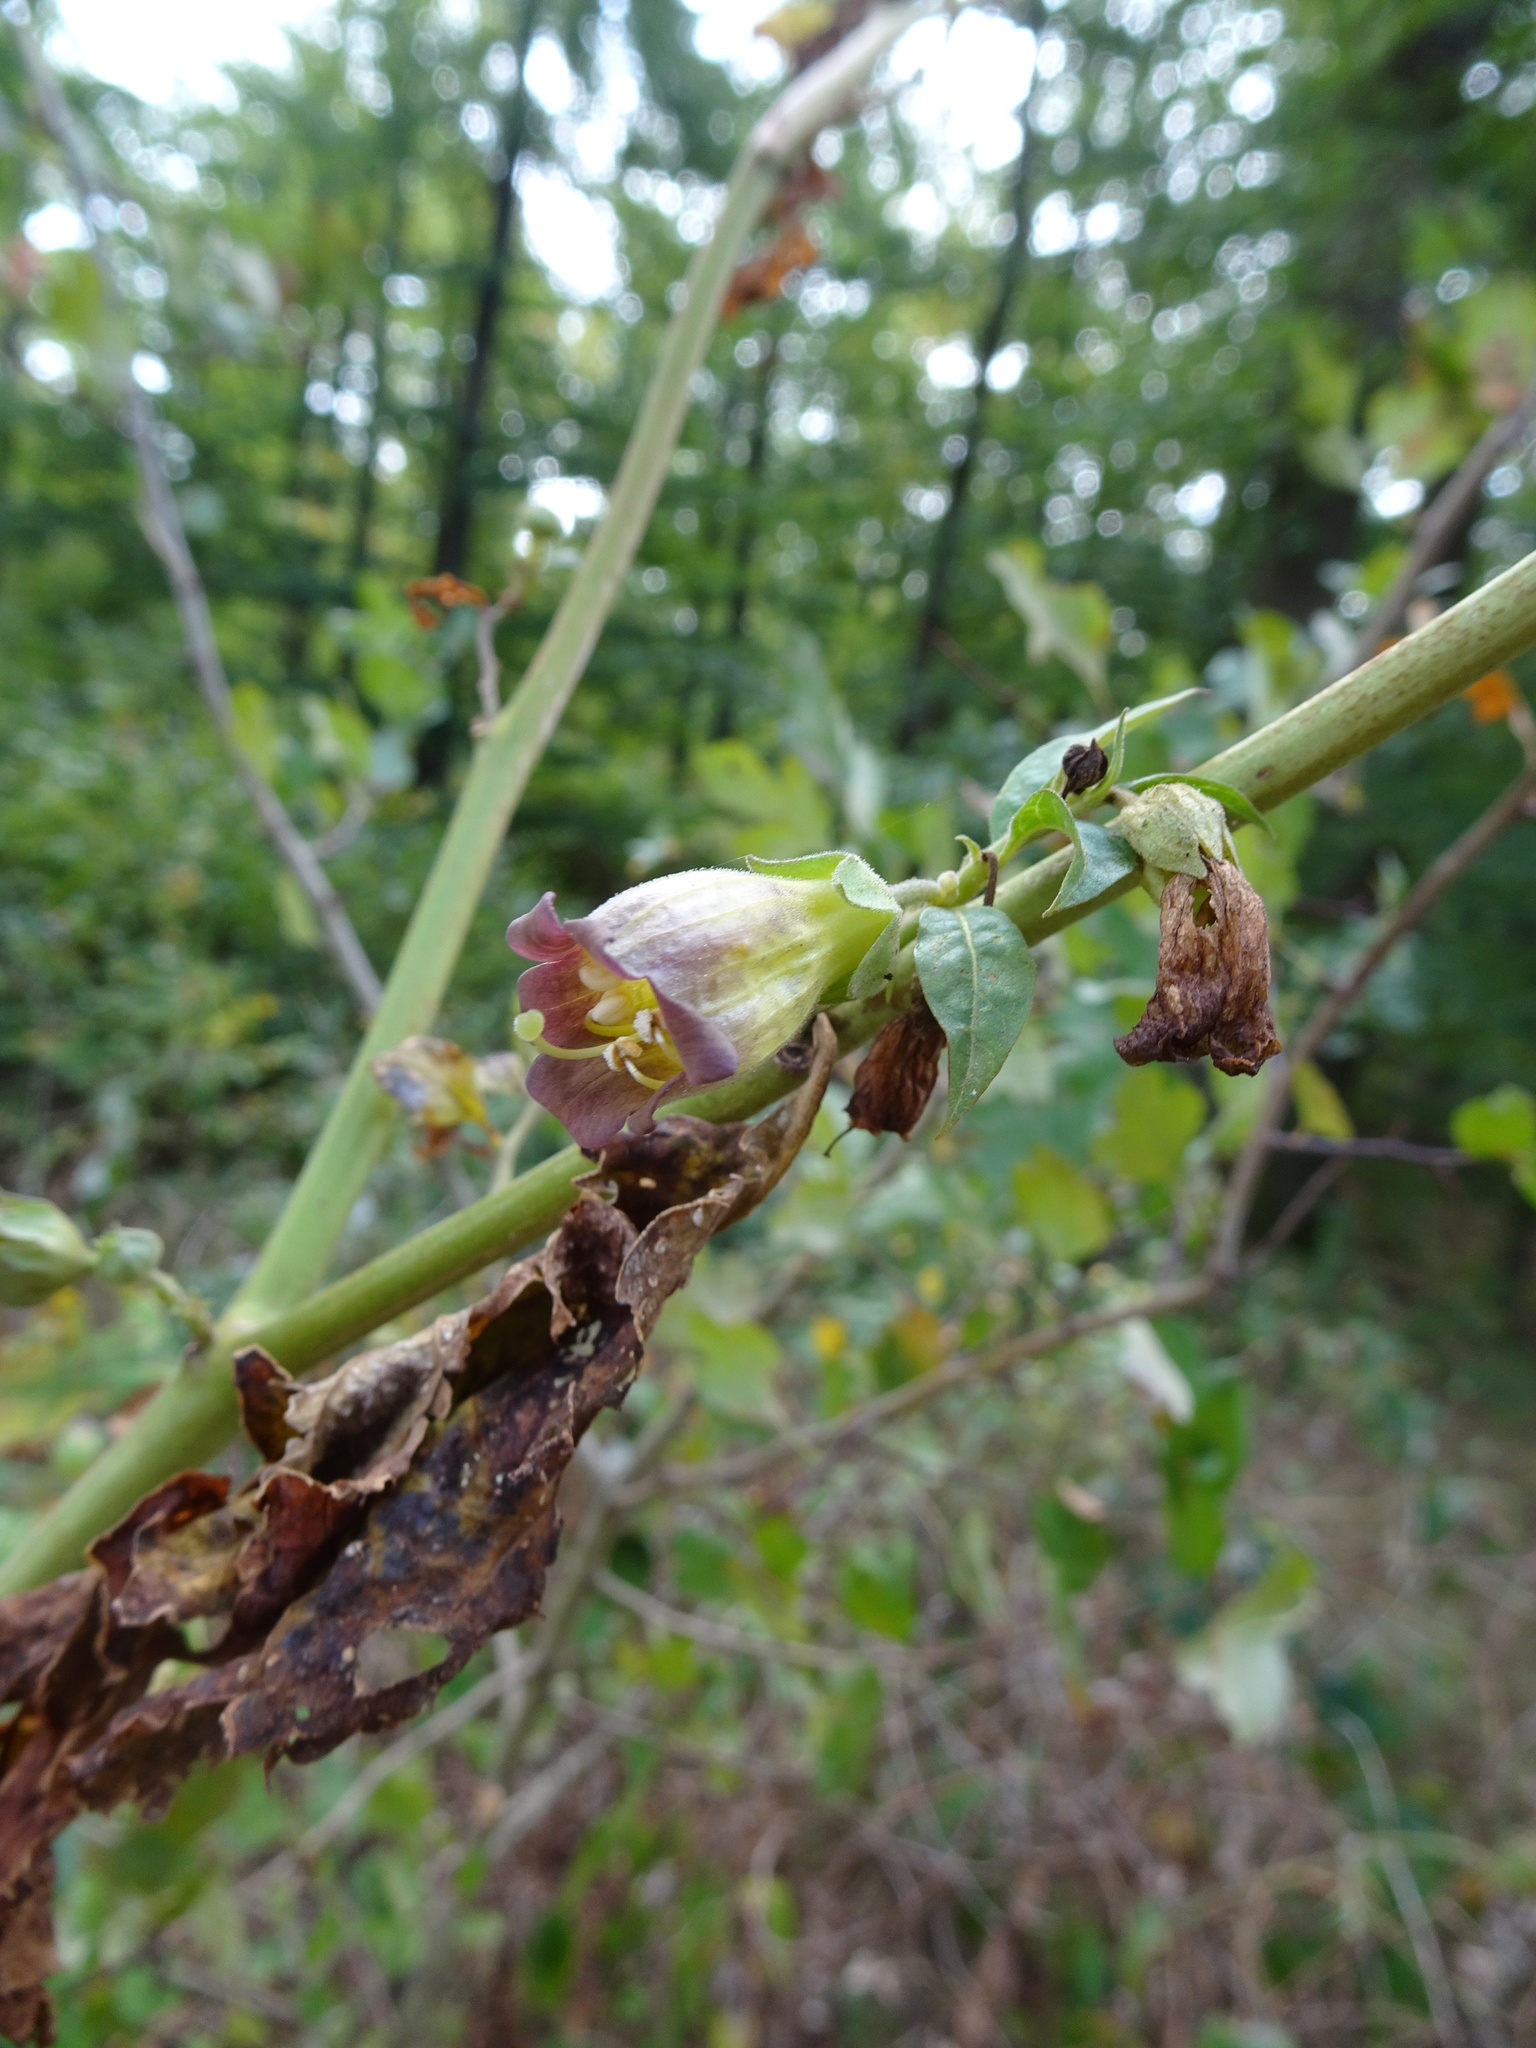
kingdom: Plantae
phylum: Tracheophyta
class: Magnoliopsida
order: Solanales
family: Solanaceae
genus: Atropa
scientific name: Atropa belladonna
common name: Deadly nightshade
